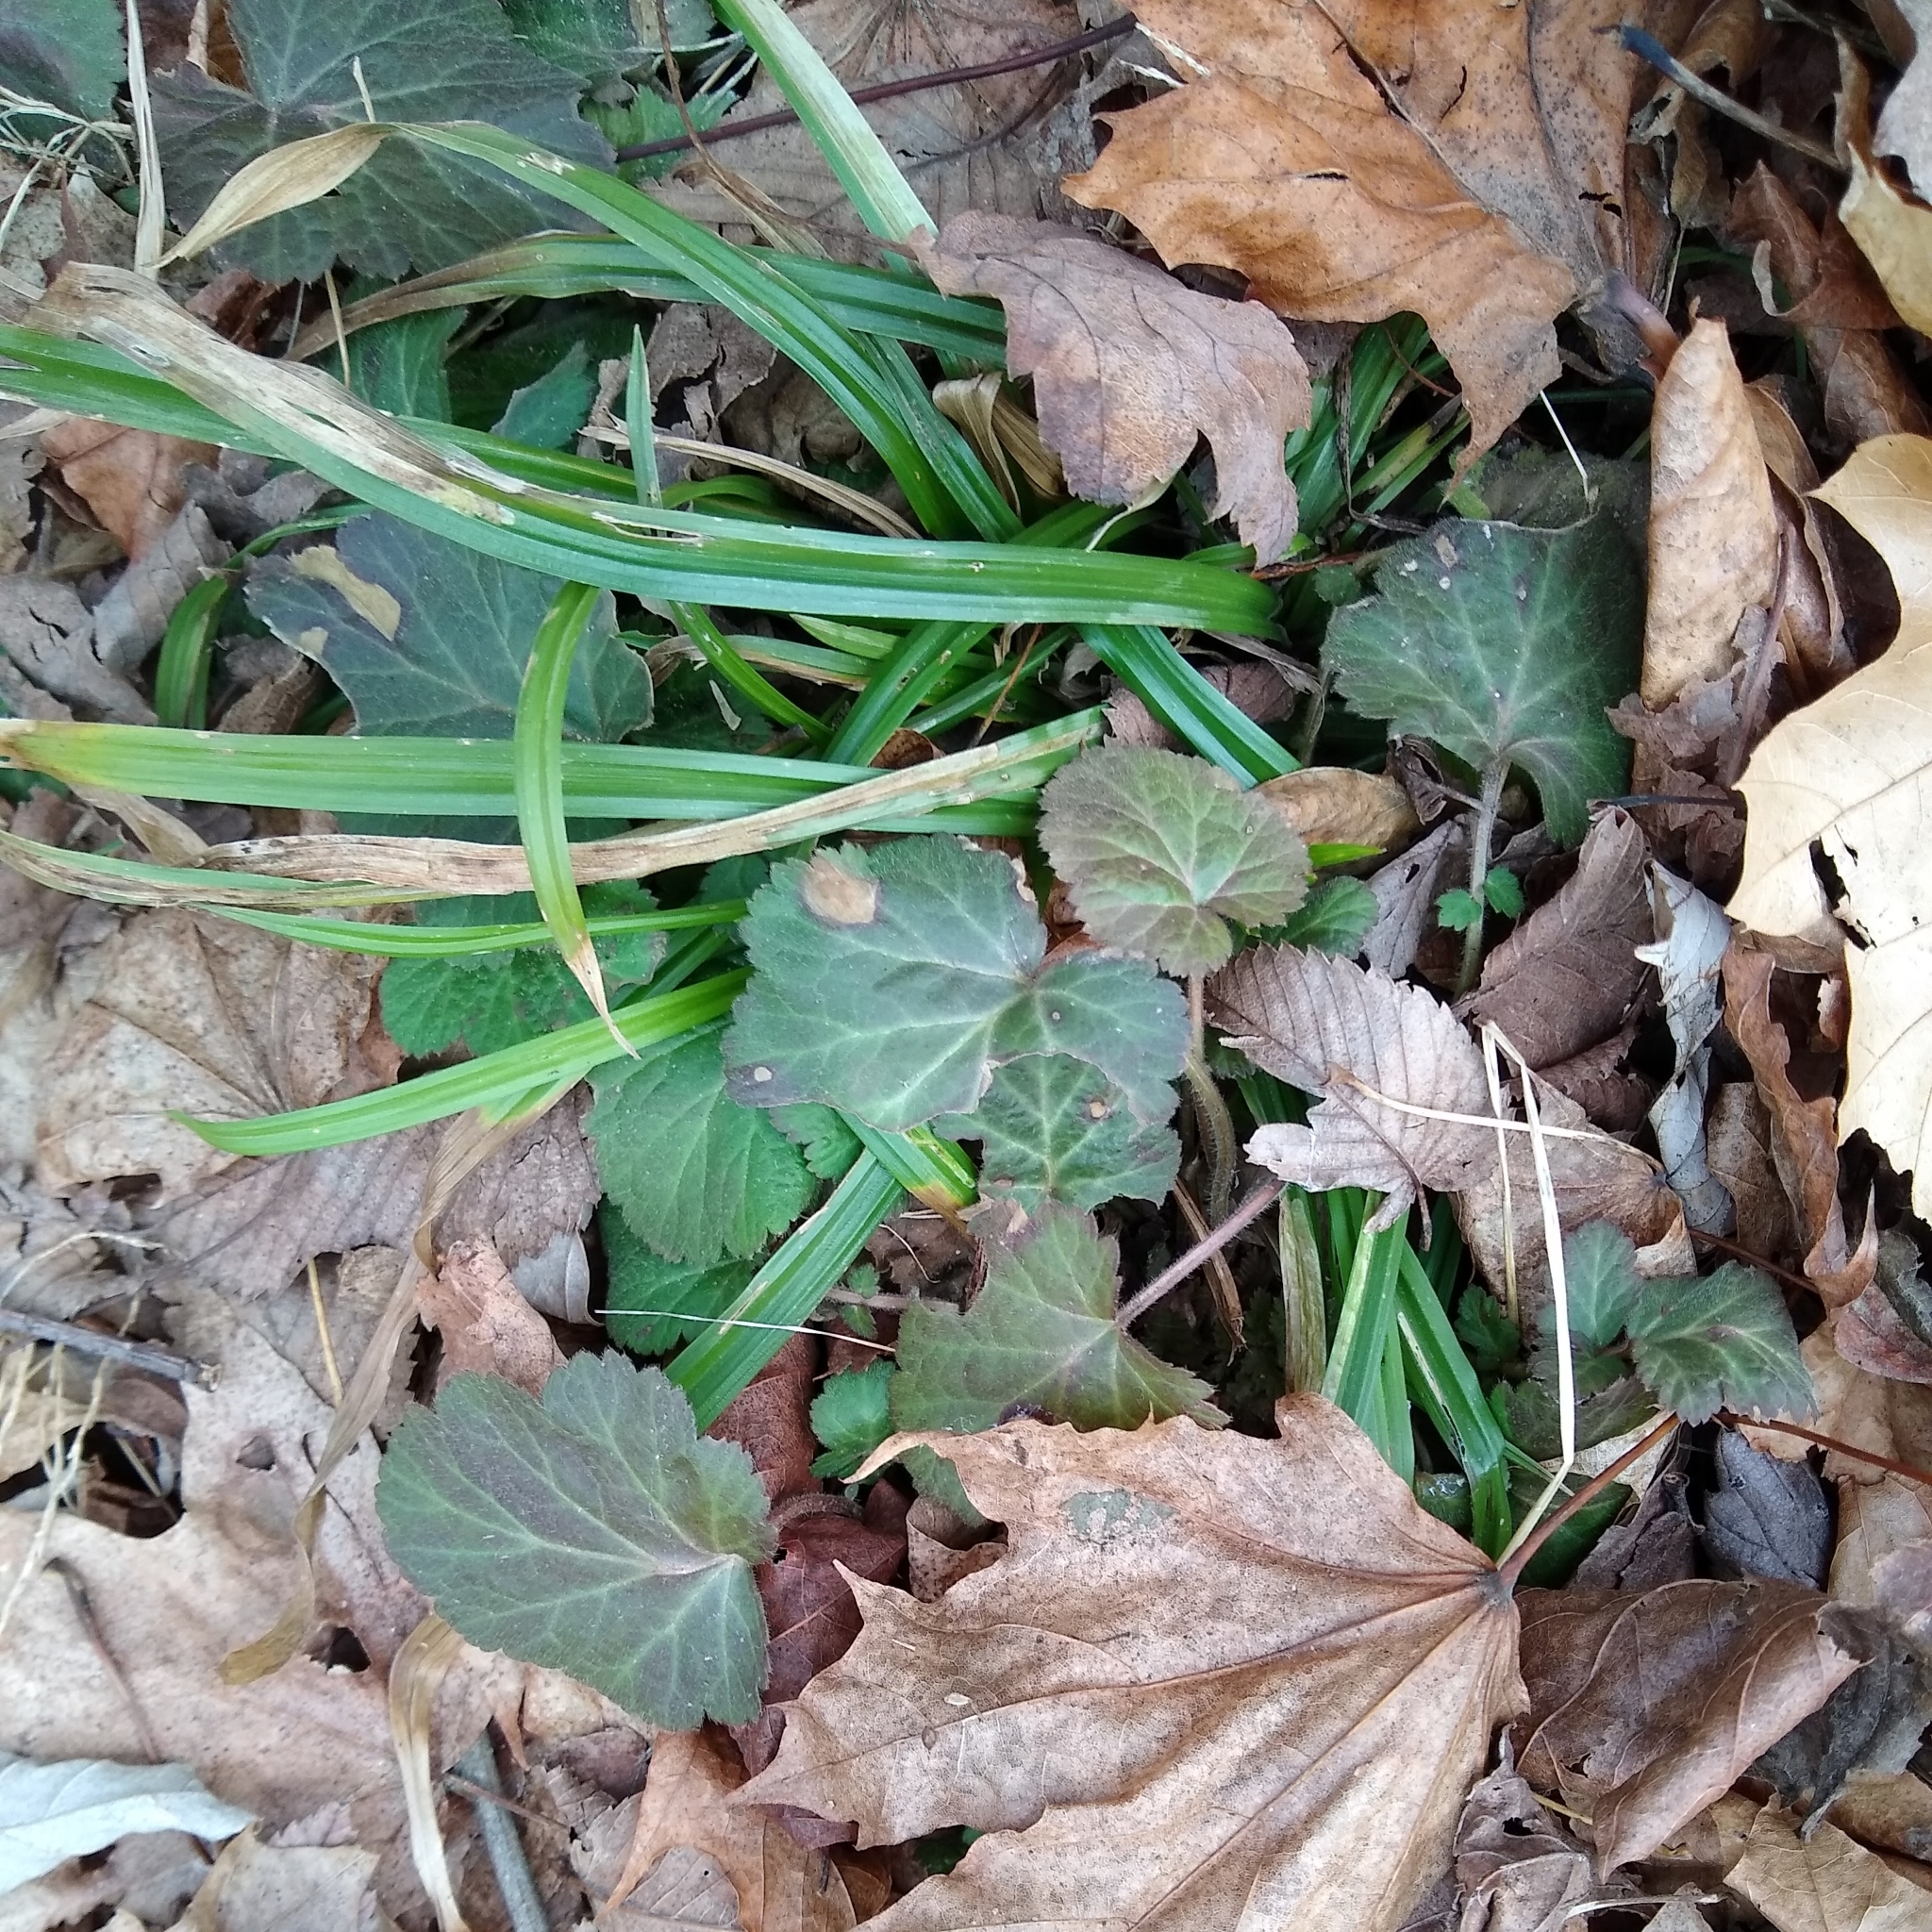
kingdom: Plantae
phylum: Tracheophyta
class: Magnoliopsida
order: Rosales
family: Rosaceae
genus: Geum
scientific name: Geum canadense
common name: White avens
